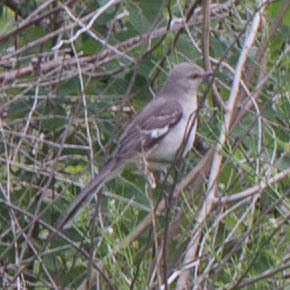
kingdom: Animalia
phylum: Chordata
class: Aves
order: Passeriformes
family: Mimidae
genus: Mimus
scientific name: Mimus polyglottos
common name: Northern mockingbird
